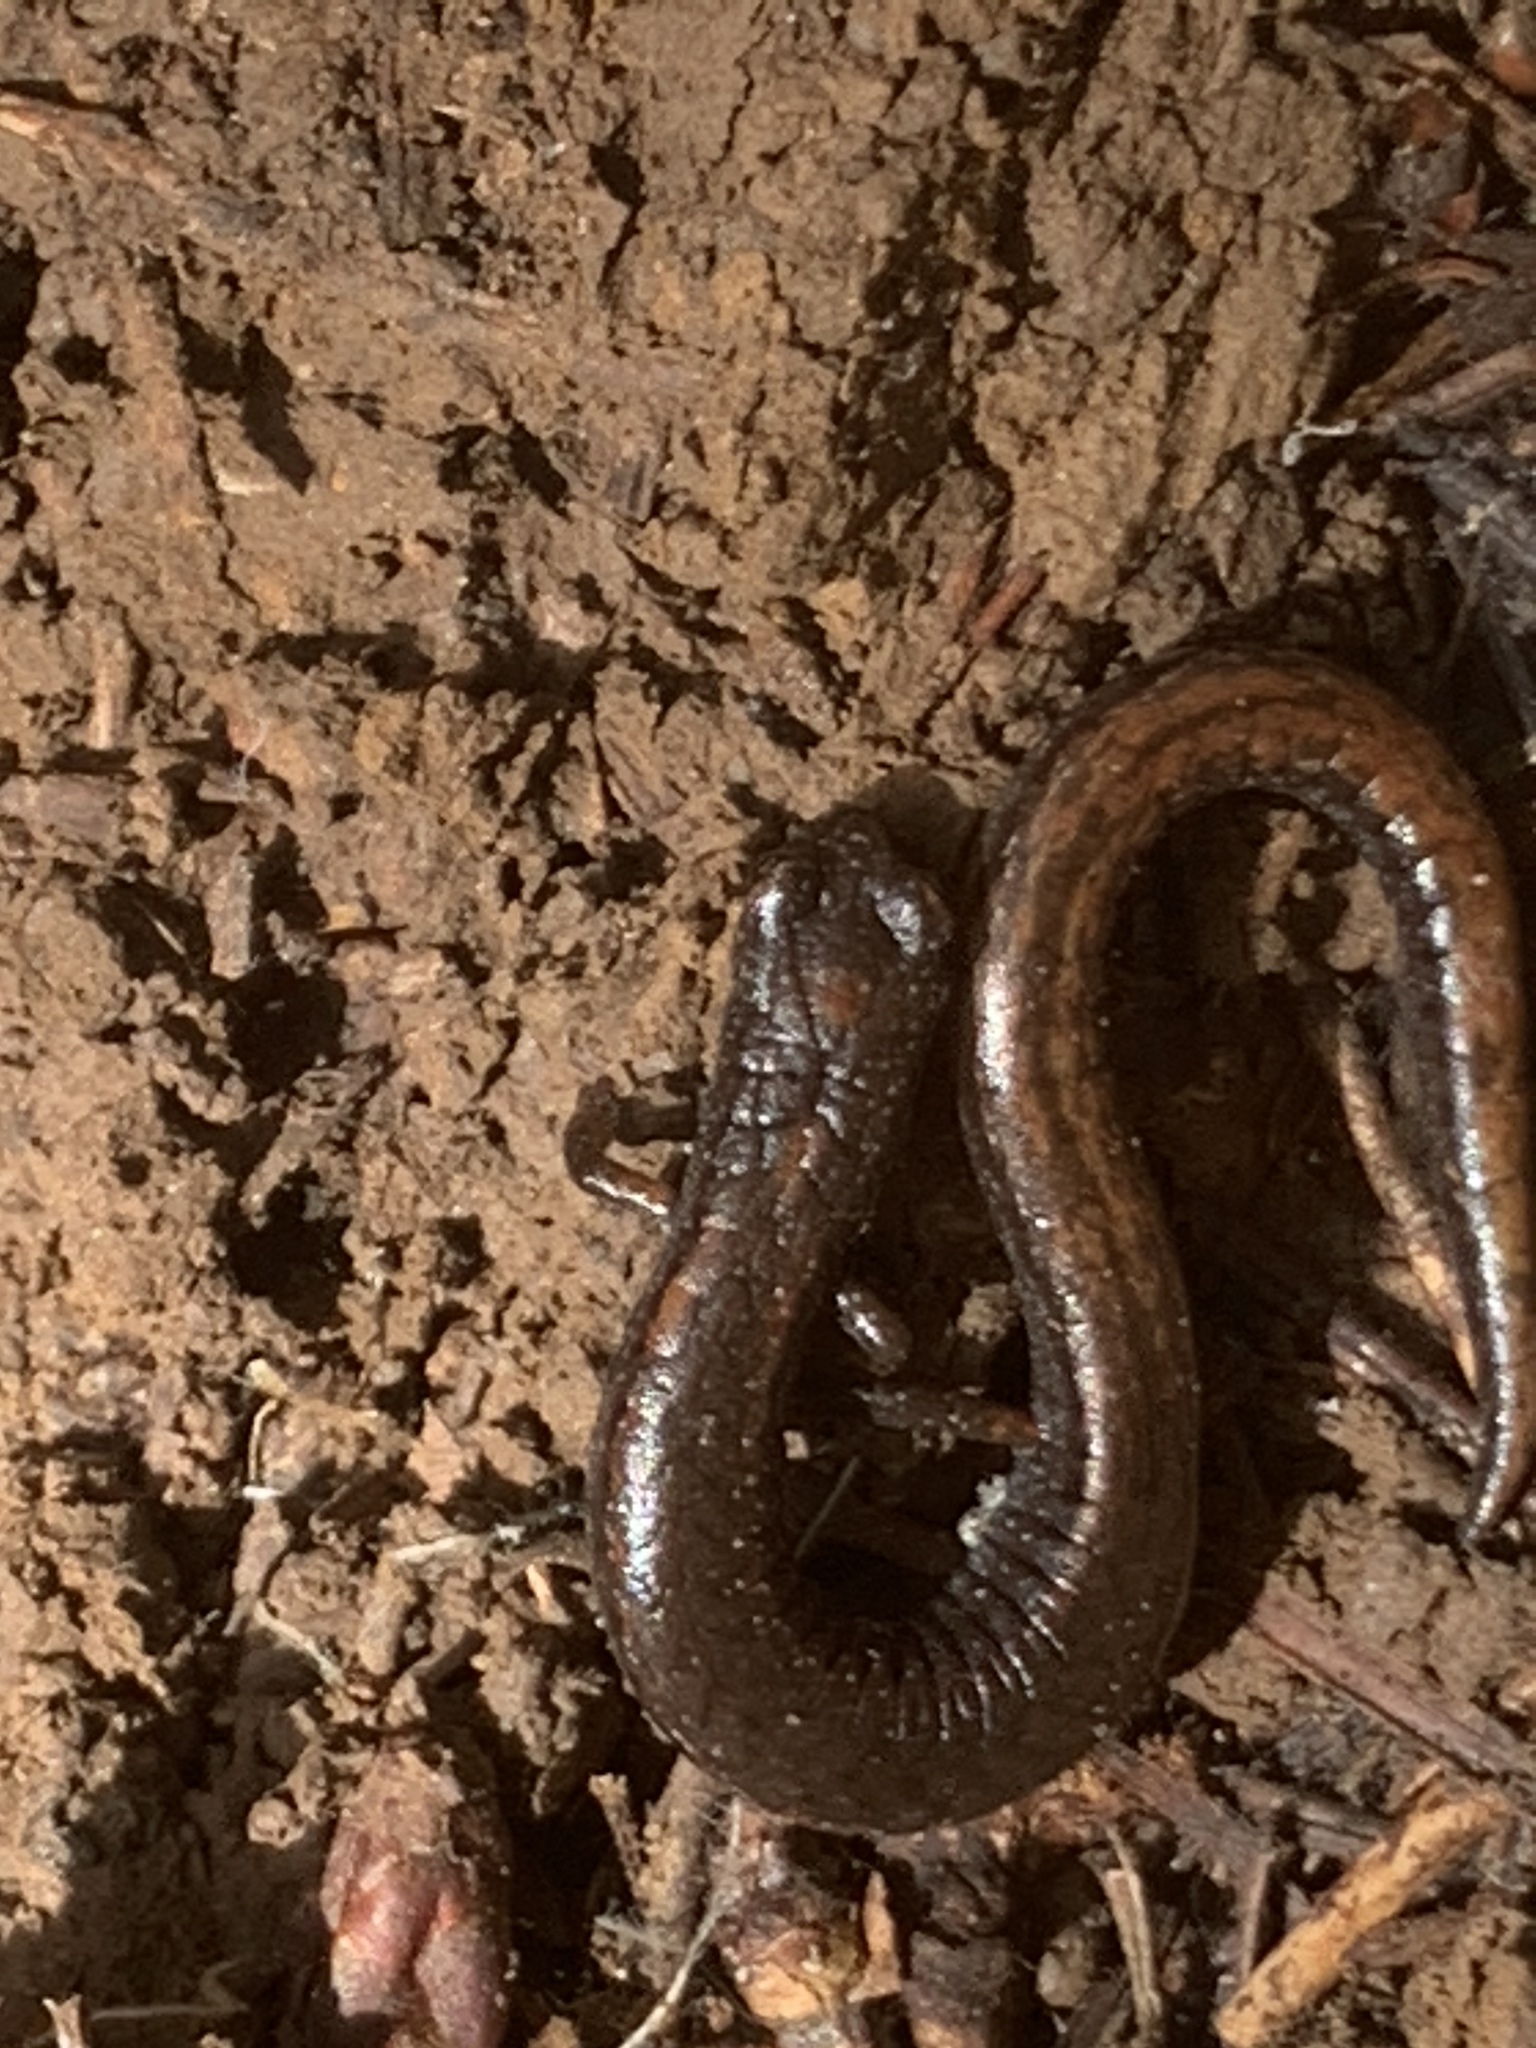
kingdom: Animalia
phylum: Chordata
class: Amphibia
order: Caudata
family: Plethodontidae
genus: Batrachoseps
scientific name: Batrachoseps attenuatus
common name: California slender salamander
